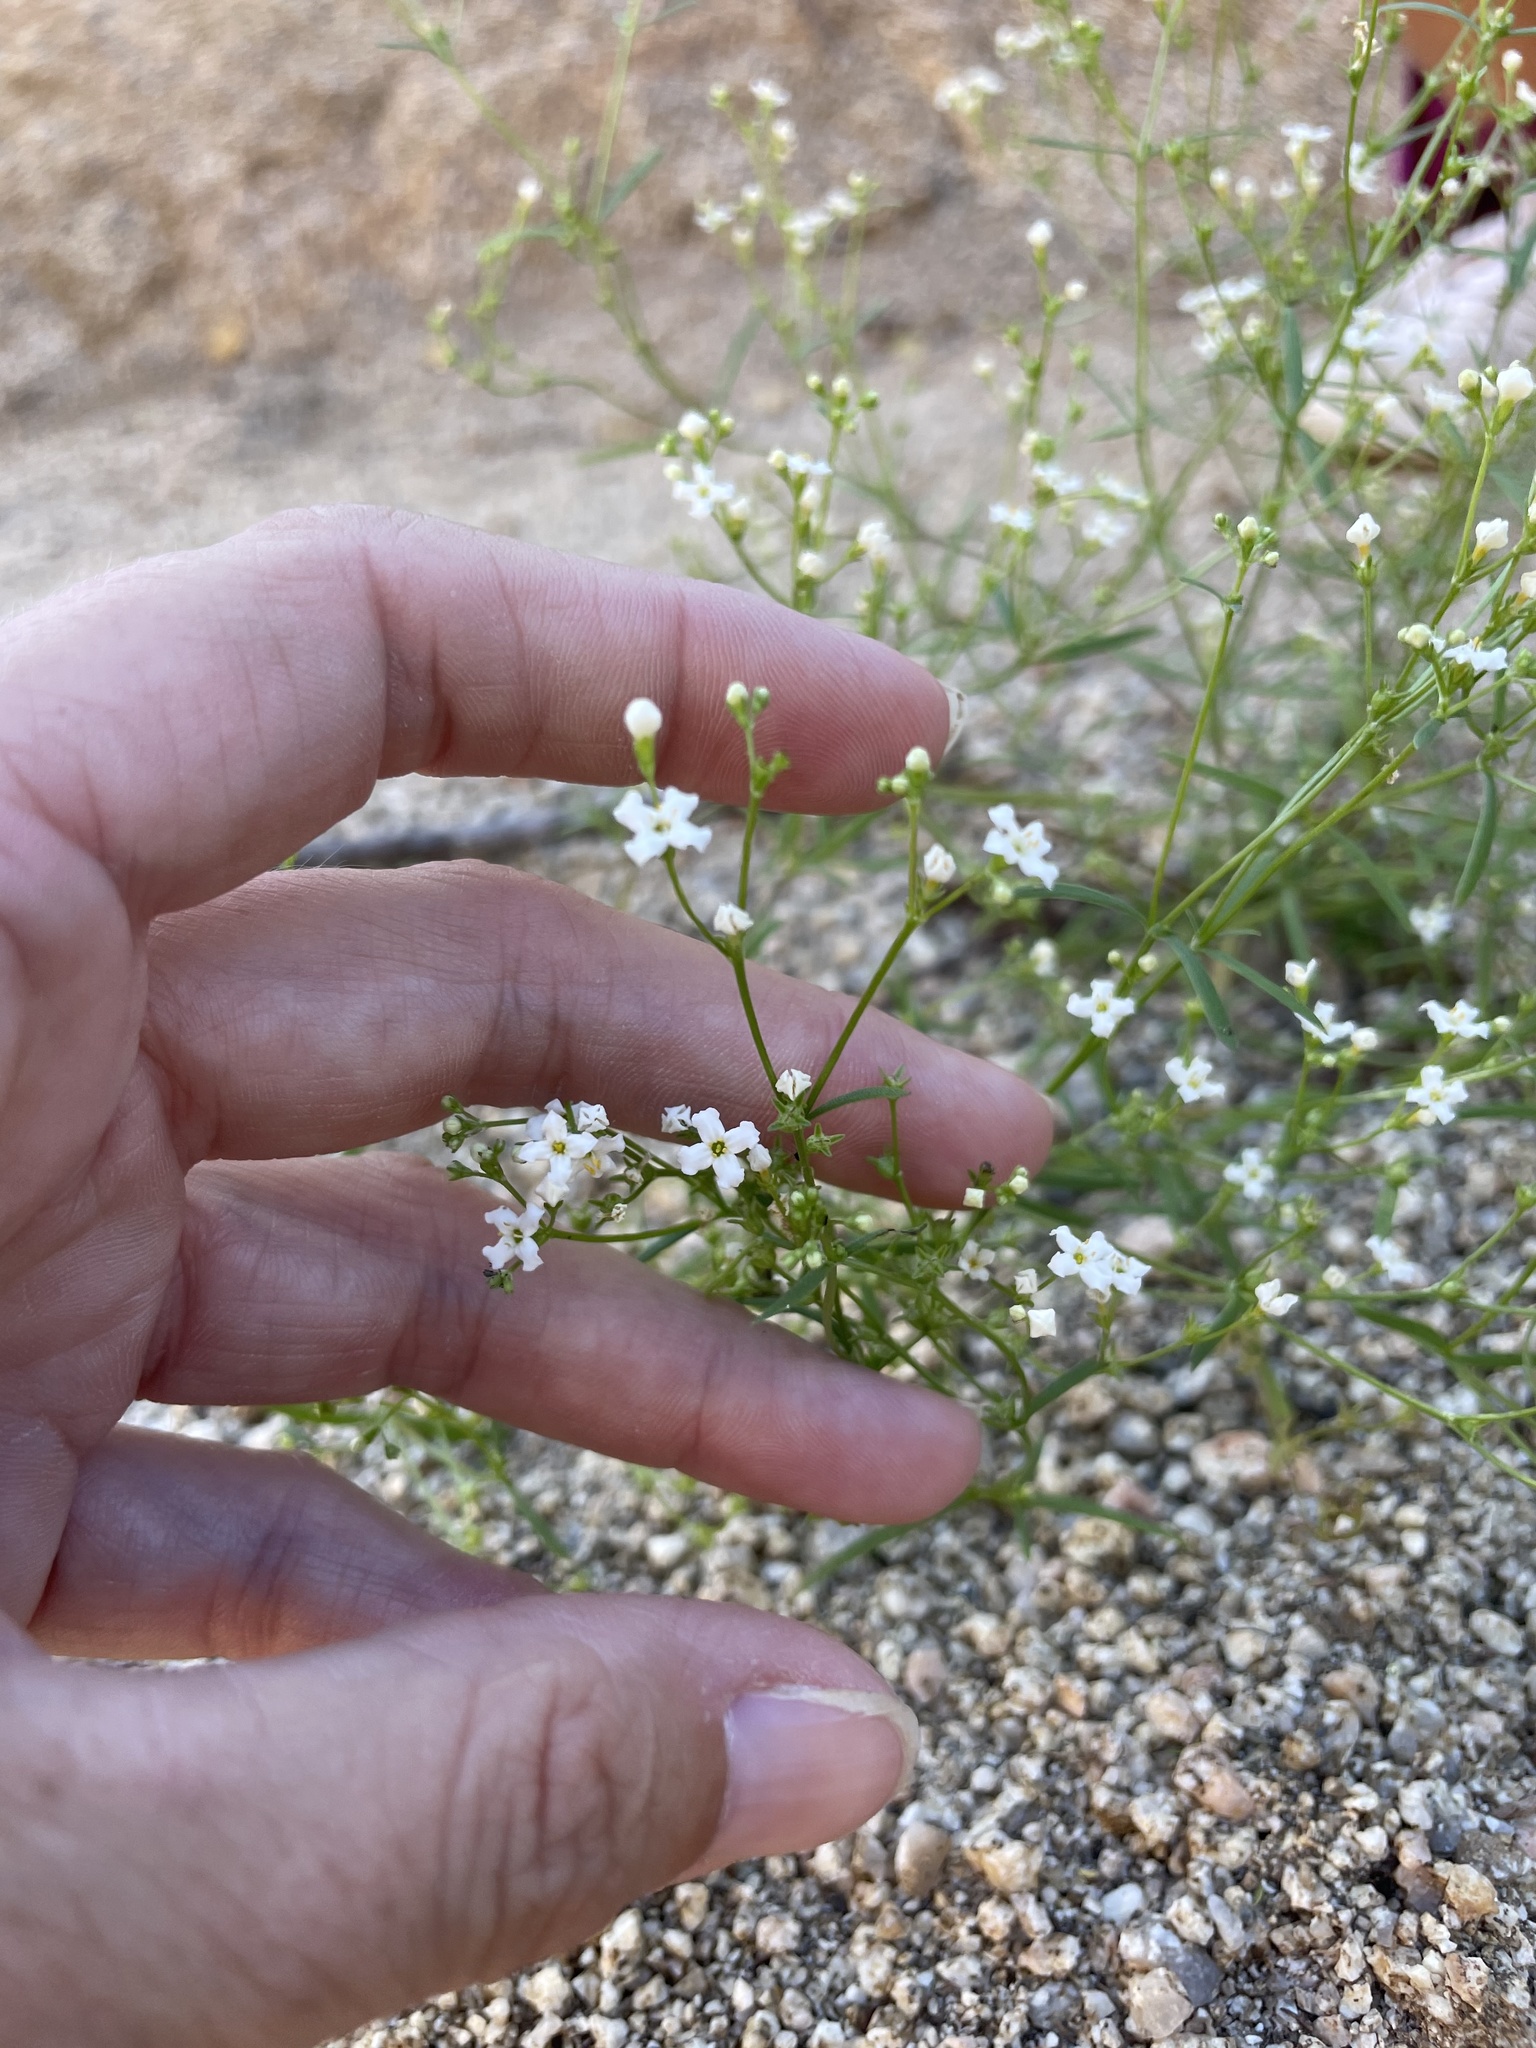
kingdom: Plantae
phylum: Tracheophyta
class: Magnoliopsida
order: Gentianales
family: Rubiaceae
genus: Stenotis
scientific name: Stenotis arenaria
